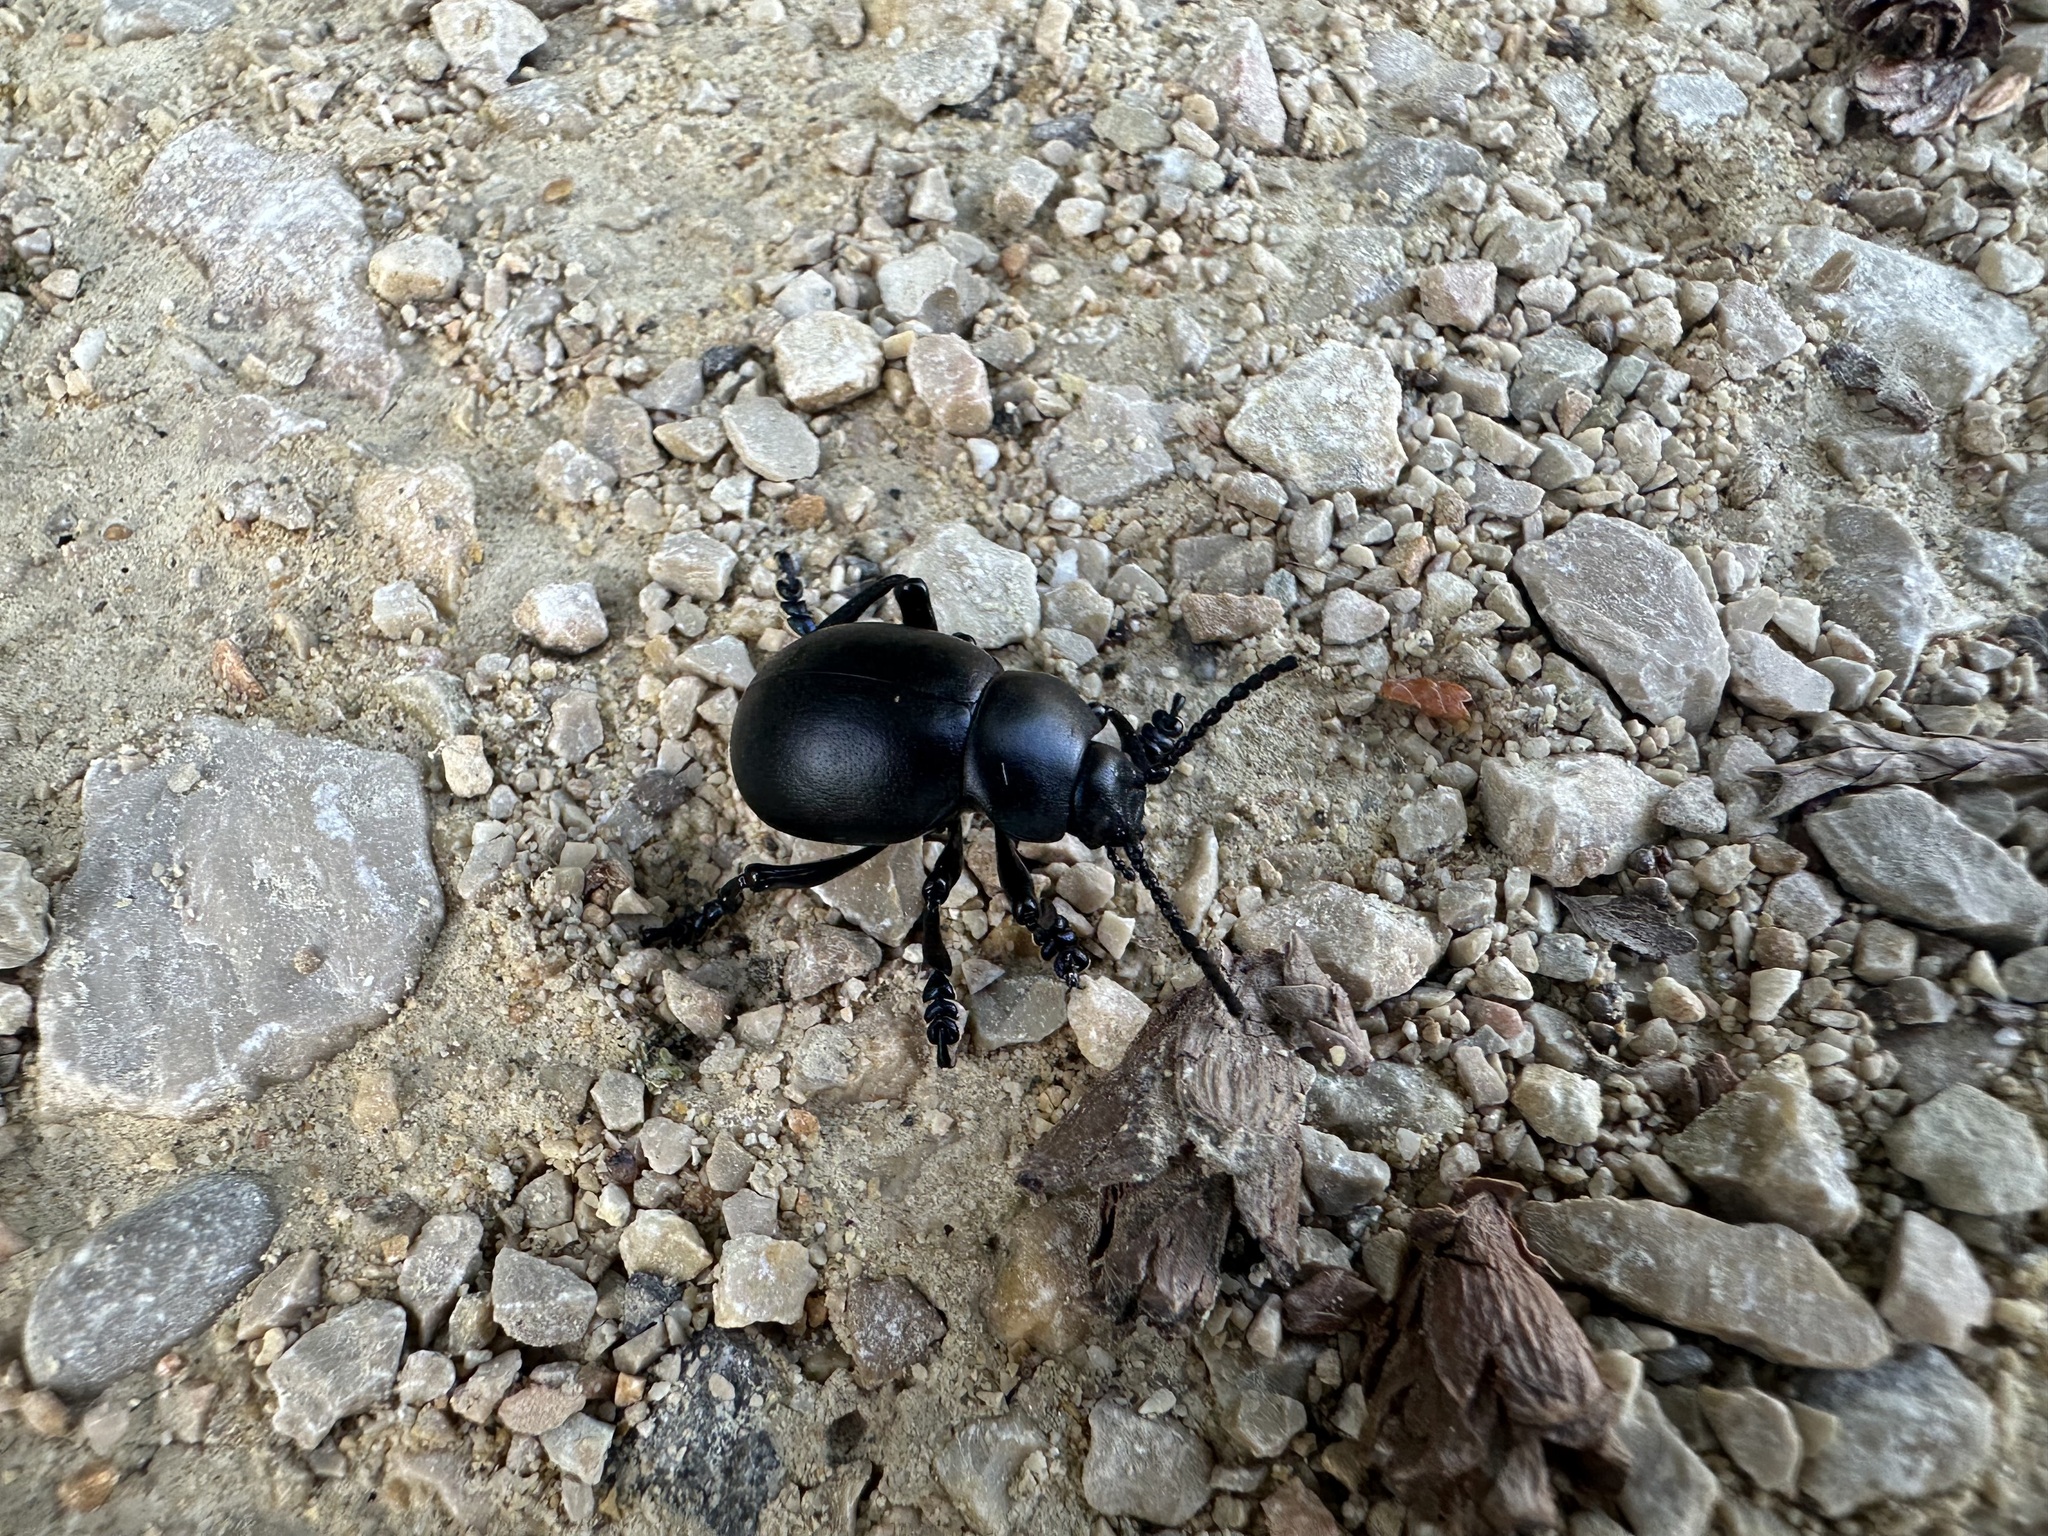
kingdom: Animalia
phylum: Arthropoda
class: Insecta
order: Coleoptera
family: Chrysomelidae
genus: Timarcha
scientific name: Timarcha tenebricosa
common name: Bloody-nosed beetle
